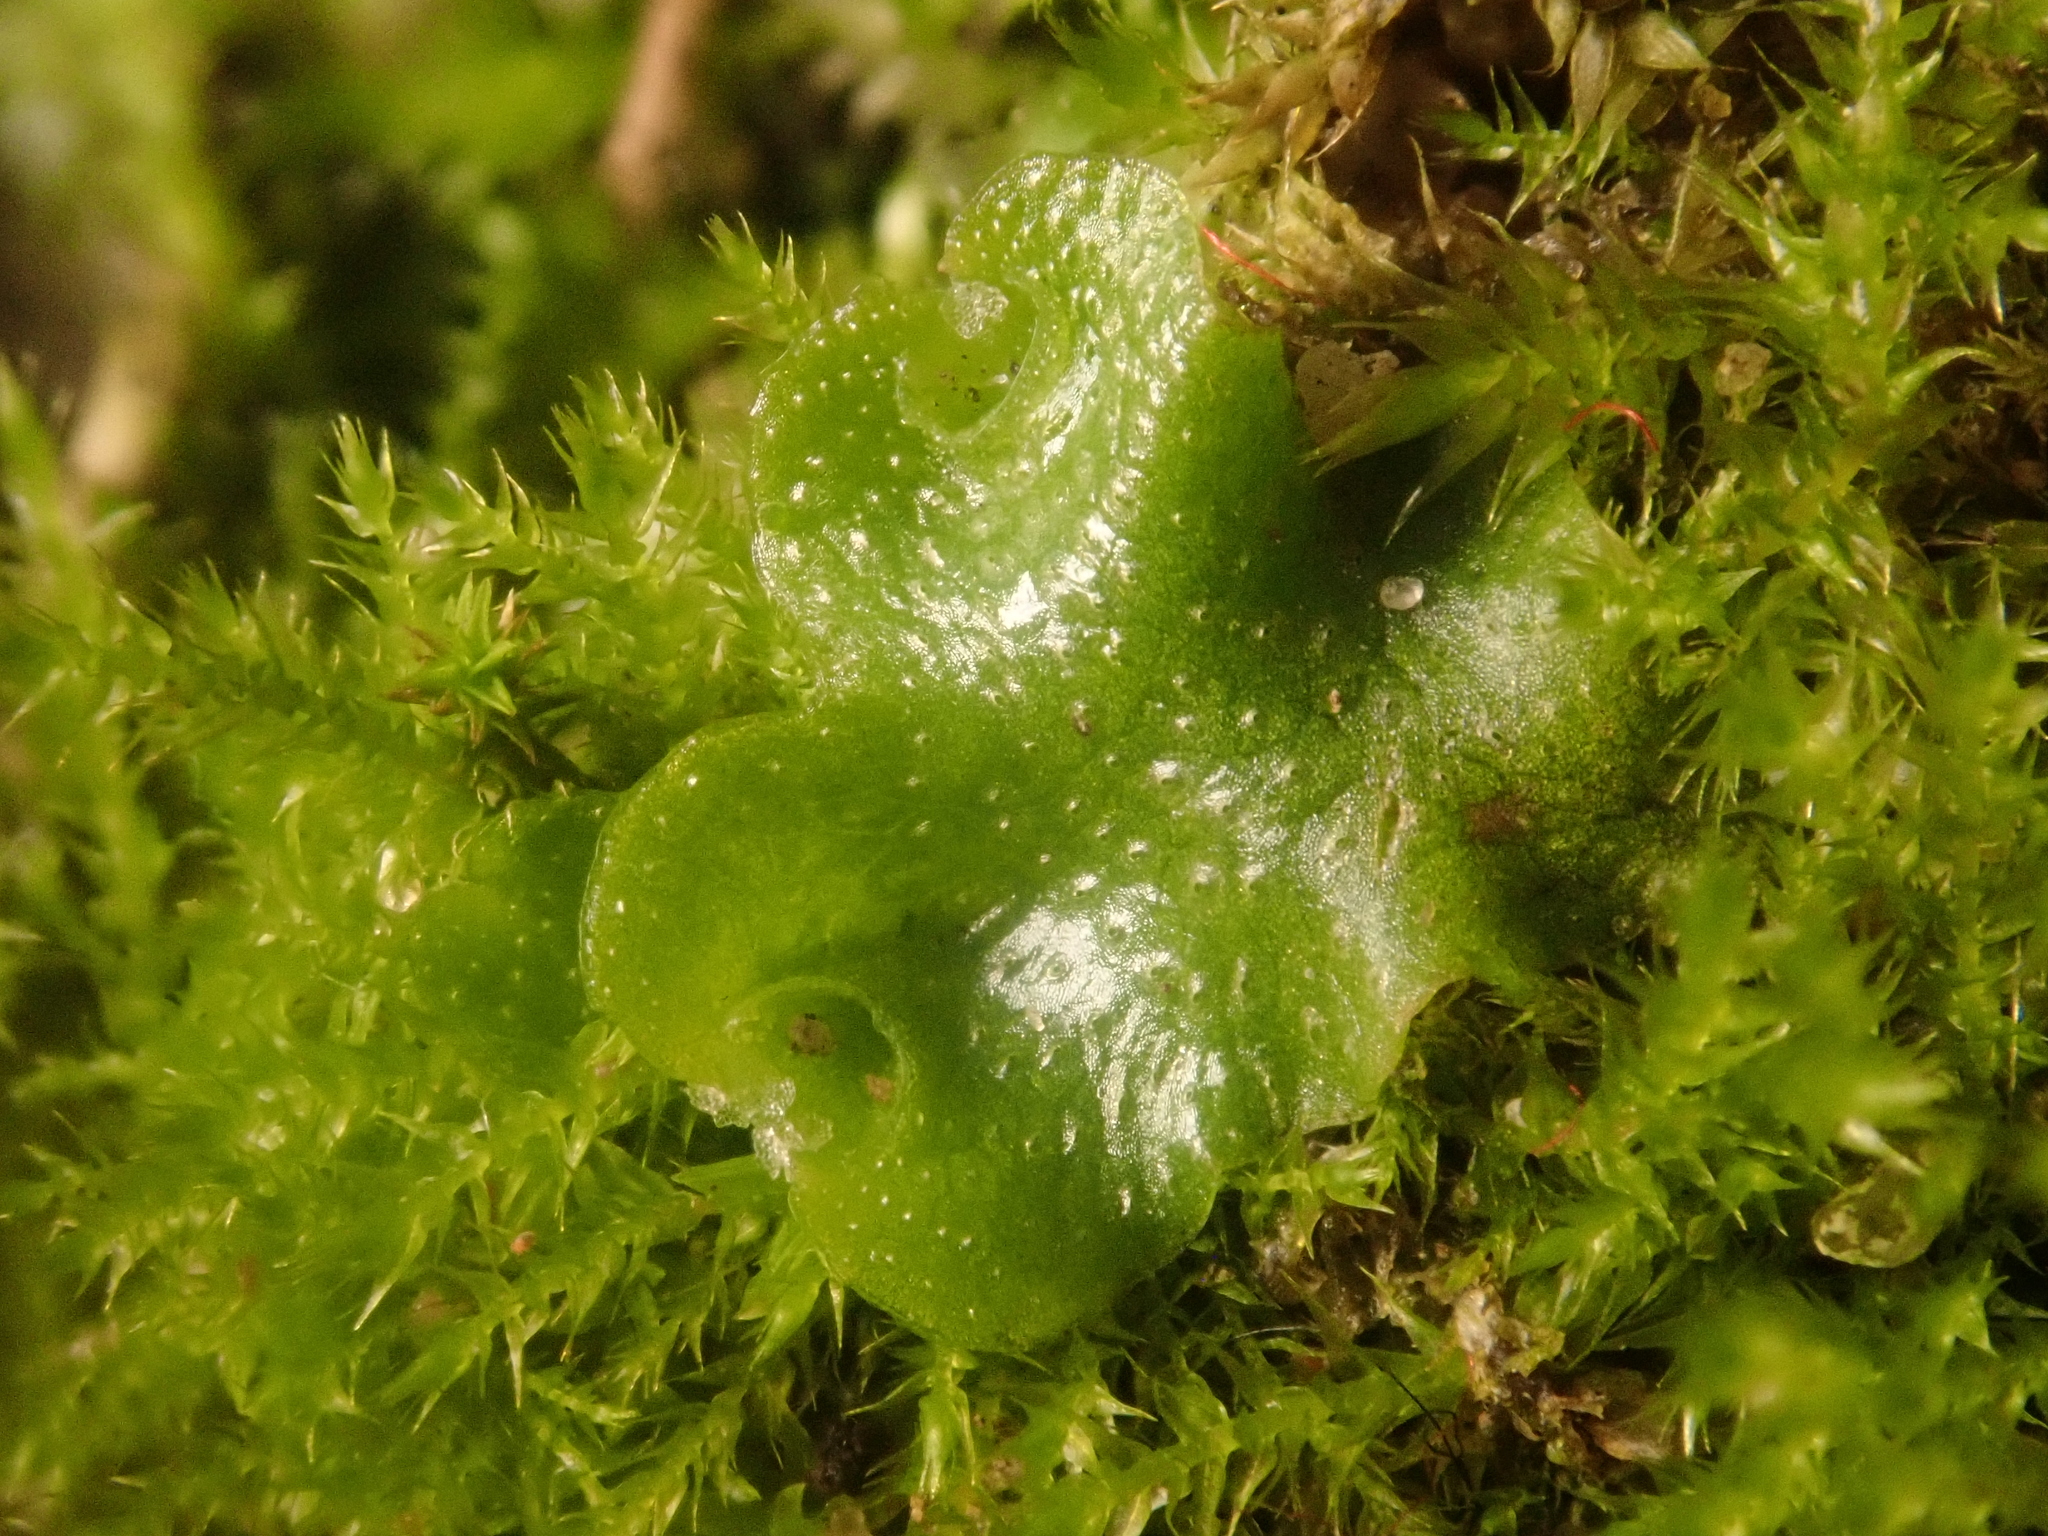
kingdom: Plantae
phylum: Marchantiophyta
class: Marchantiopsida
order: Lunulariales
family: Lunulariaceae
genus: Lunularia
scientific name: Lunularia cruciata
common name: Crescent-cup liverwort
